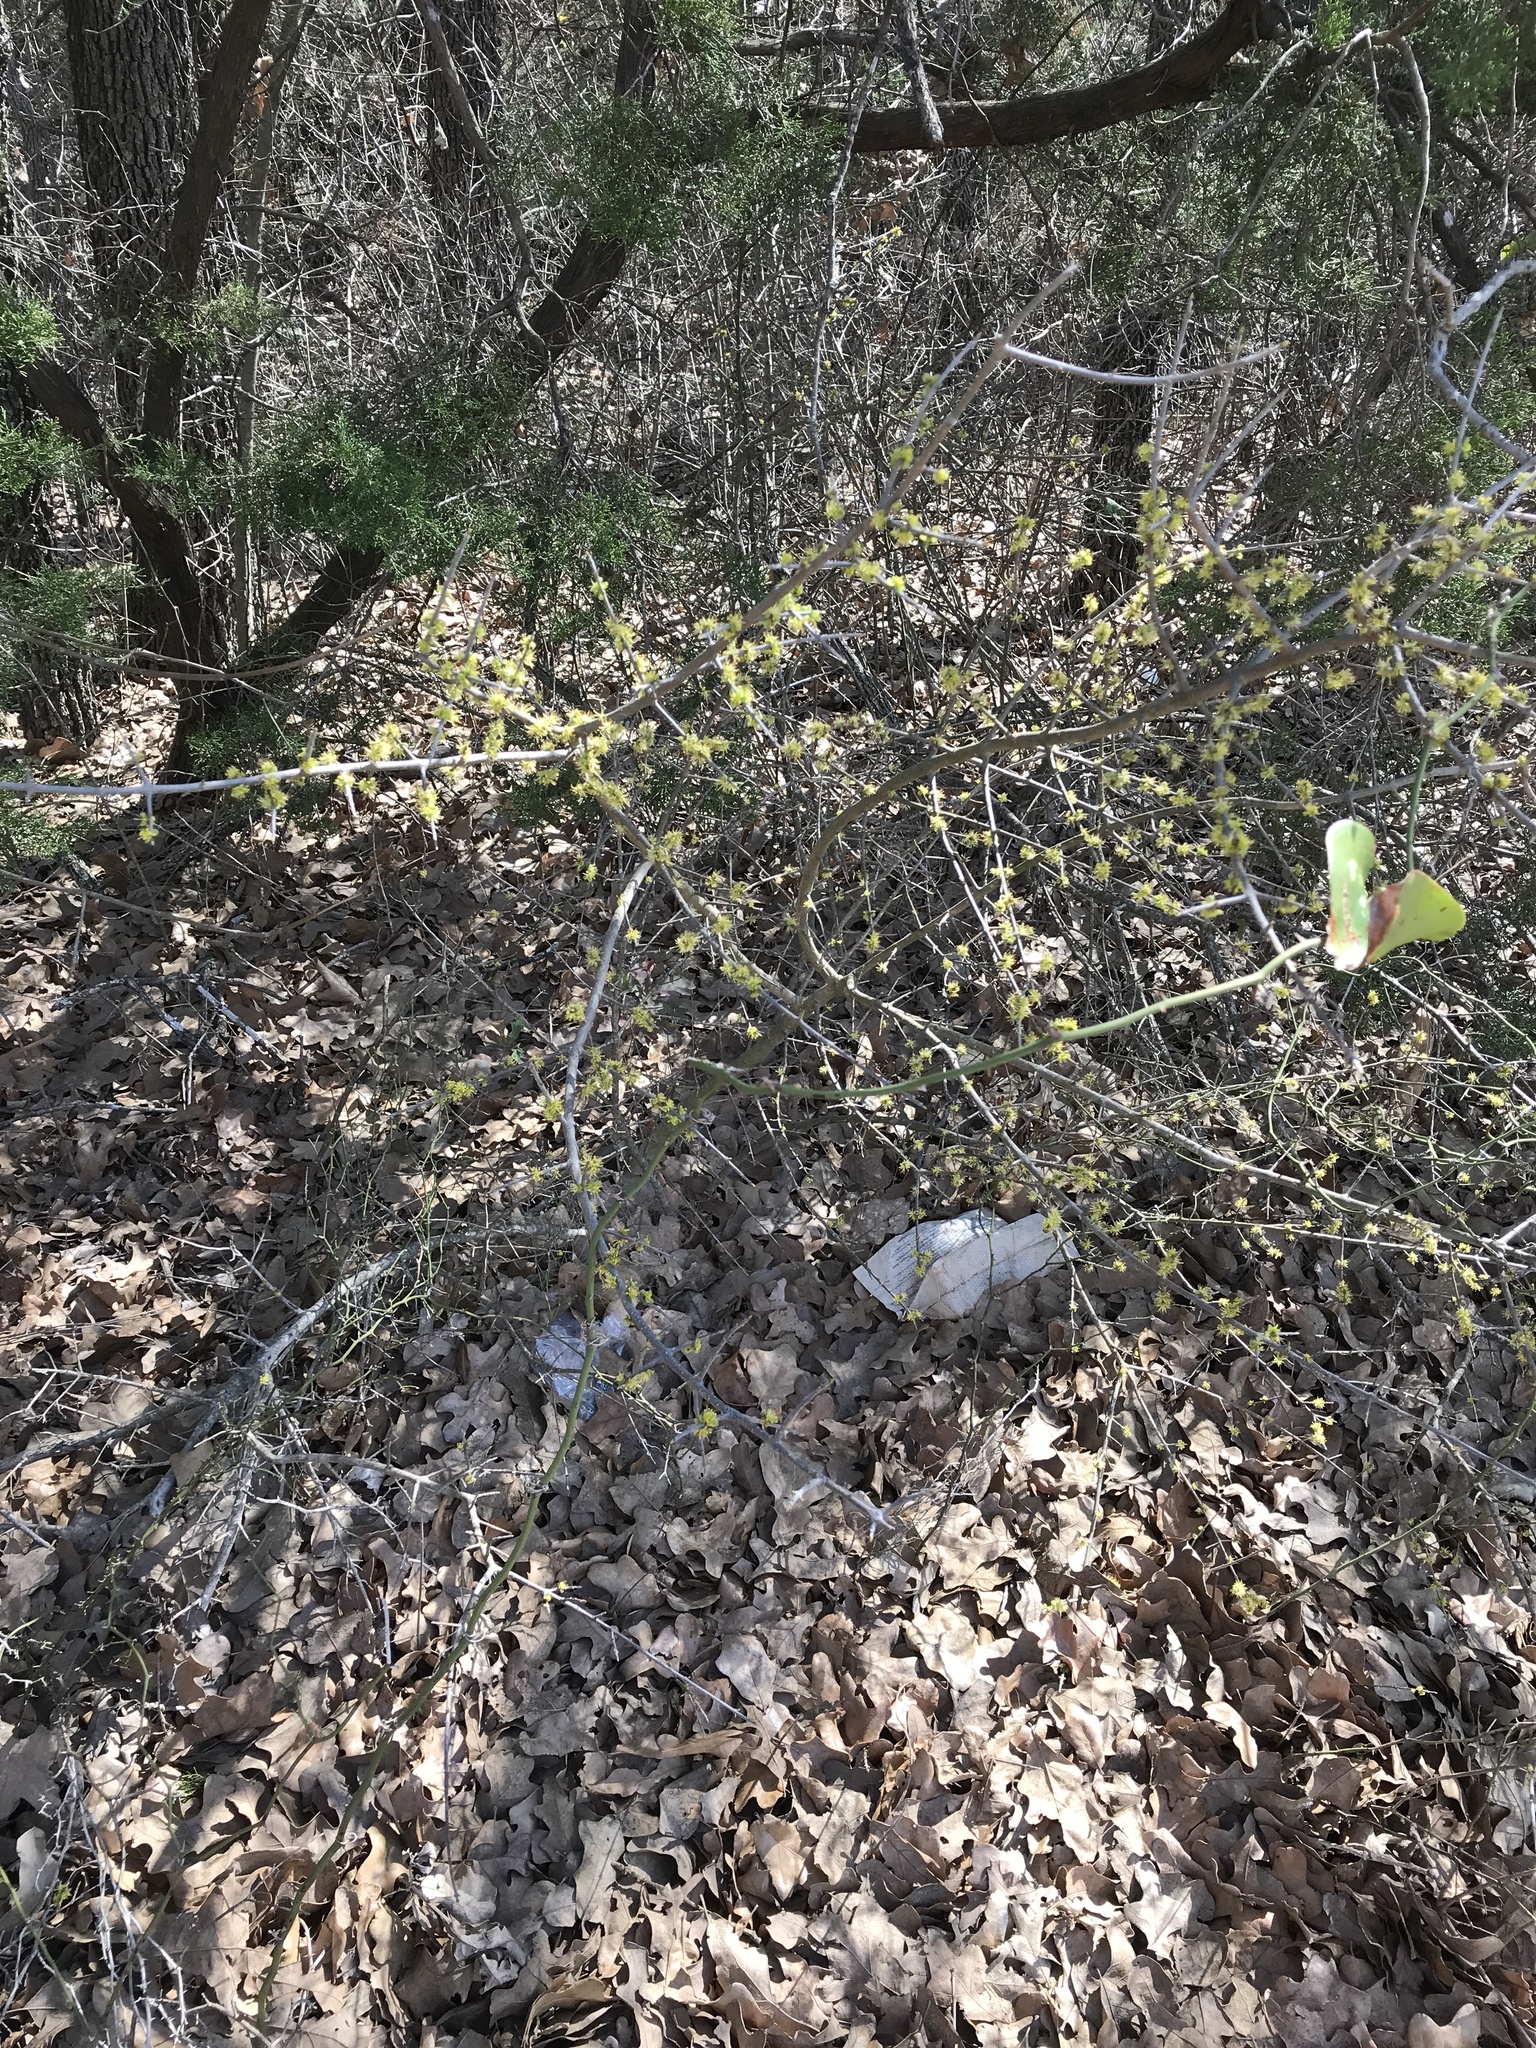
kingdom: Plantae
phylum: Tracheophyta
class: Magnoliopsida
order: Lamiales
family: Oleaceae
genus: Forestiera
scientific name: Forestiera pubescens
